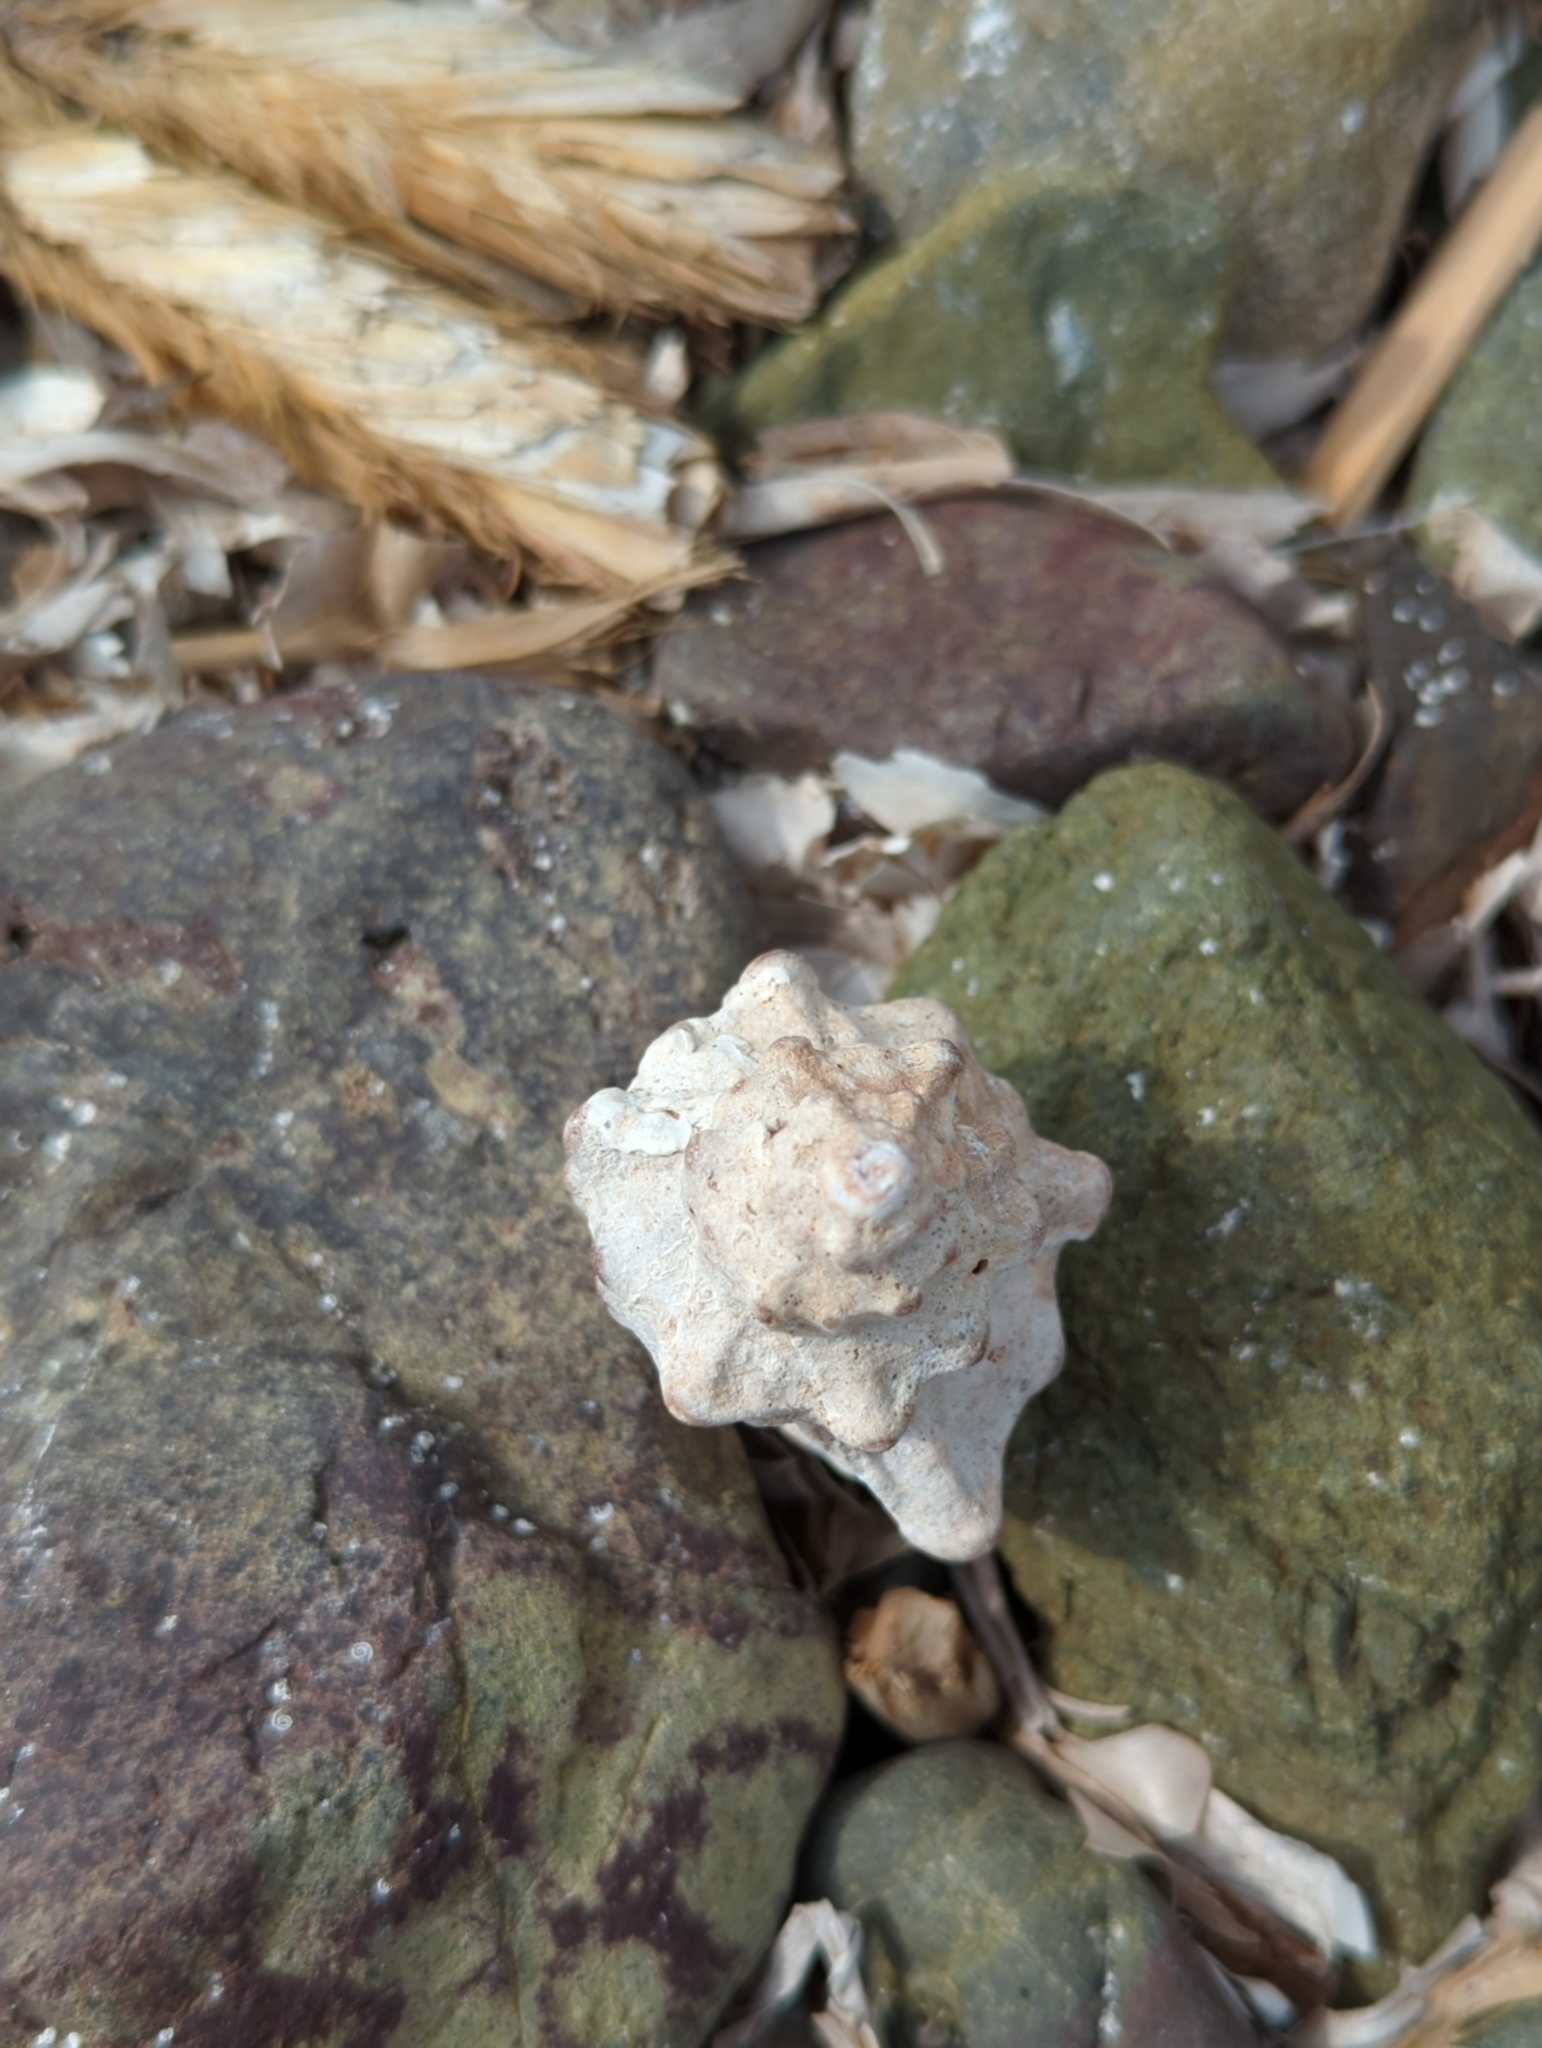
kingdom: Animalia
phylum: Mollusca
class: Gastropoda
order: Neogastropoda
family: Muricidae
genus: Hexaplex
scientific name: Hexaplex trunculus
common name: Banded dye-murex
